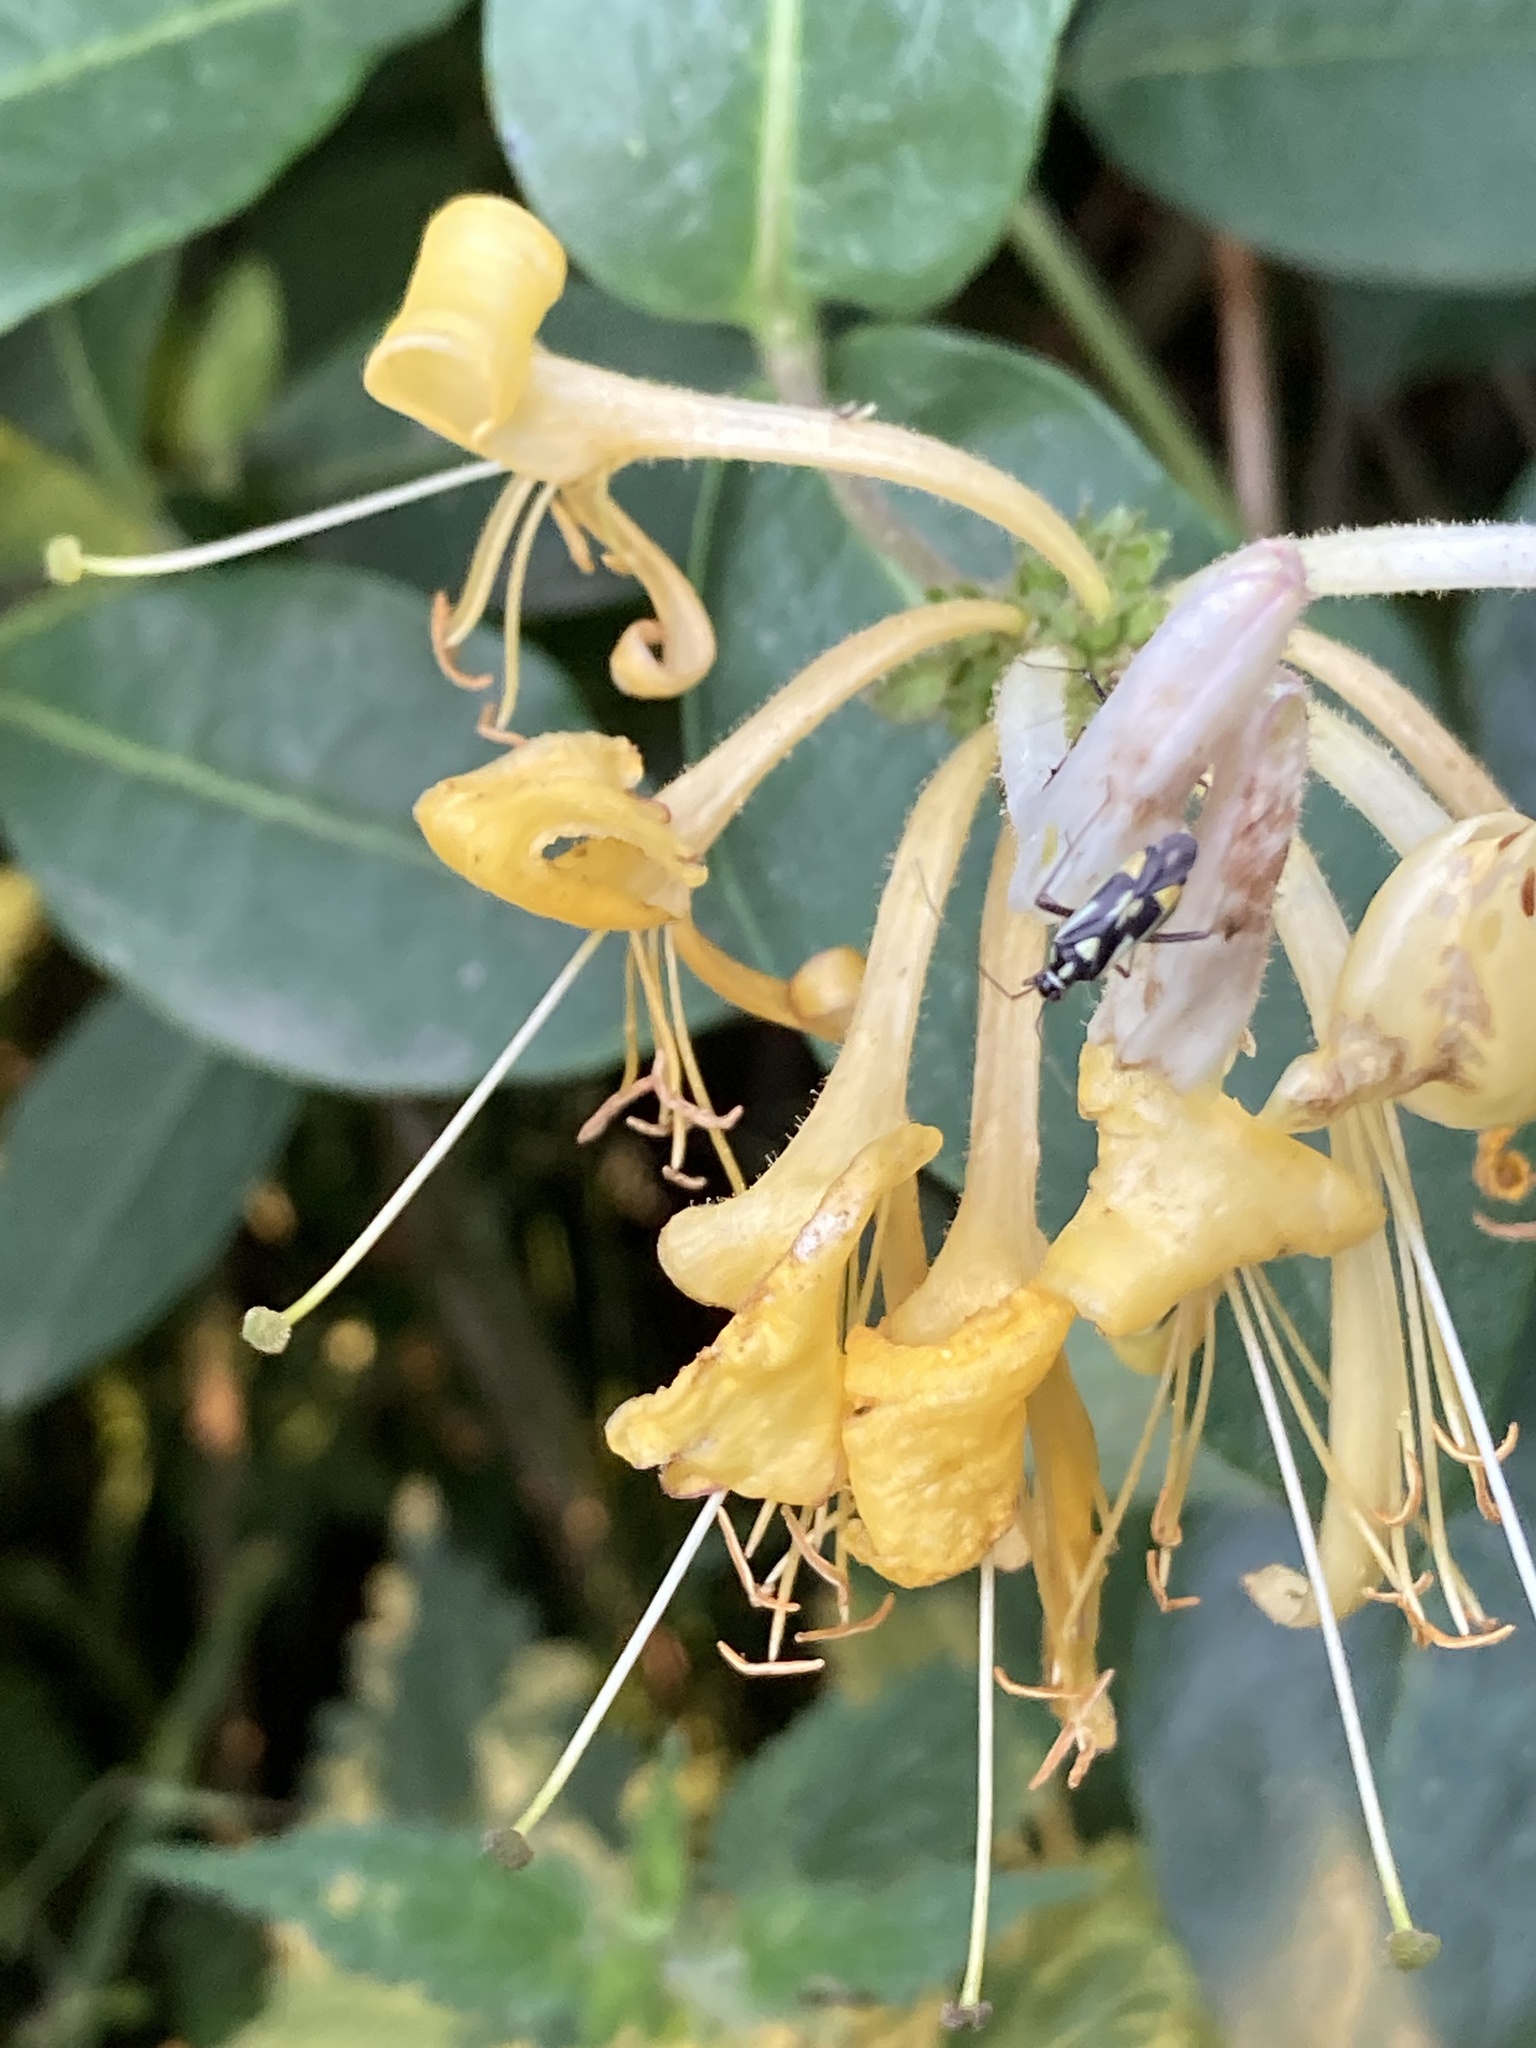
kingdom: Animalia
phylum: Arthropoda
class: Insecta
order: Hemiptera
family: Miridae
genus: Grypocoris
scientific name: Grypocoris stysi
